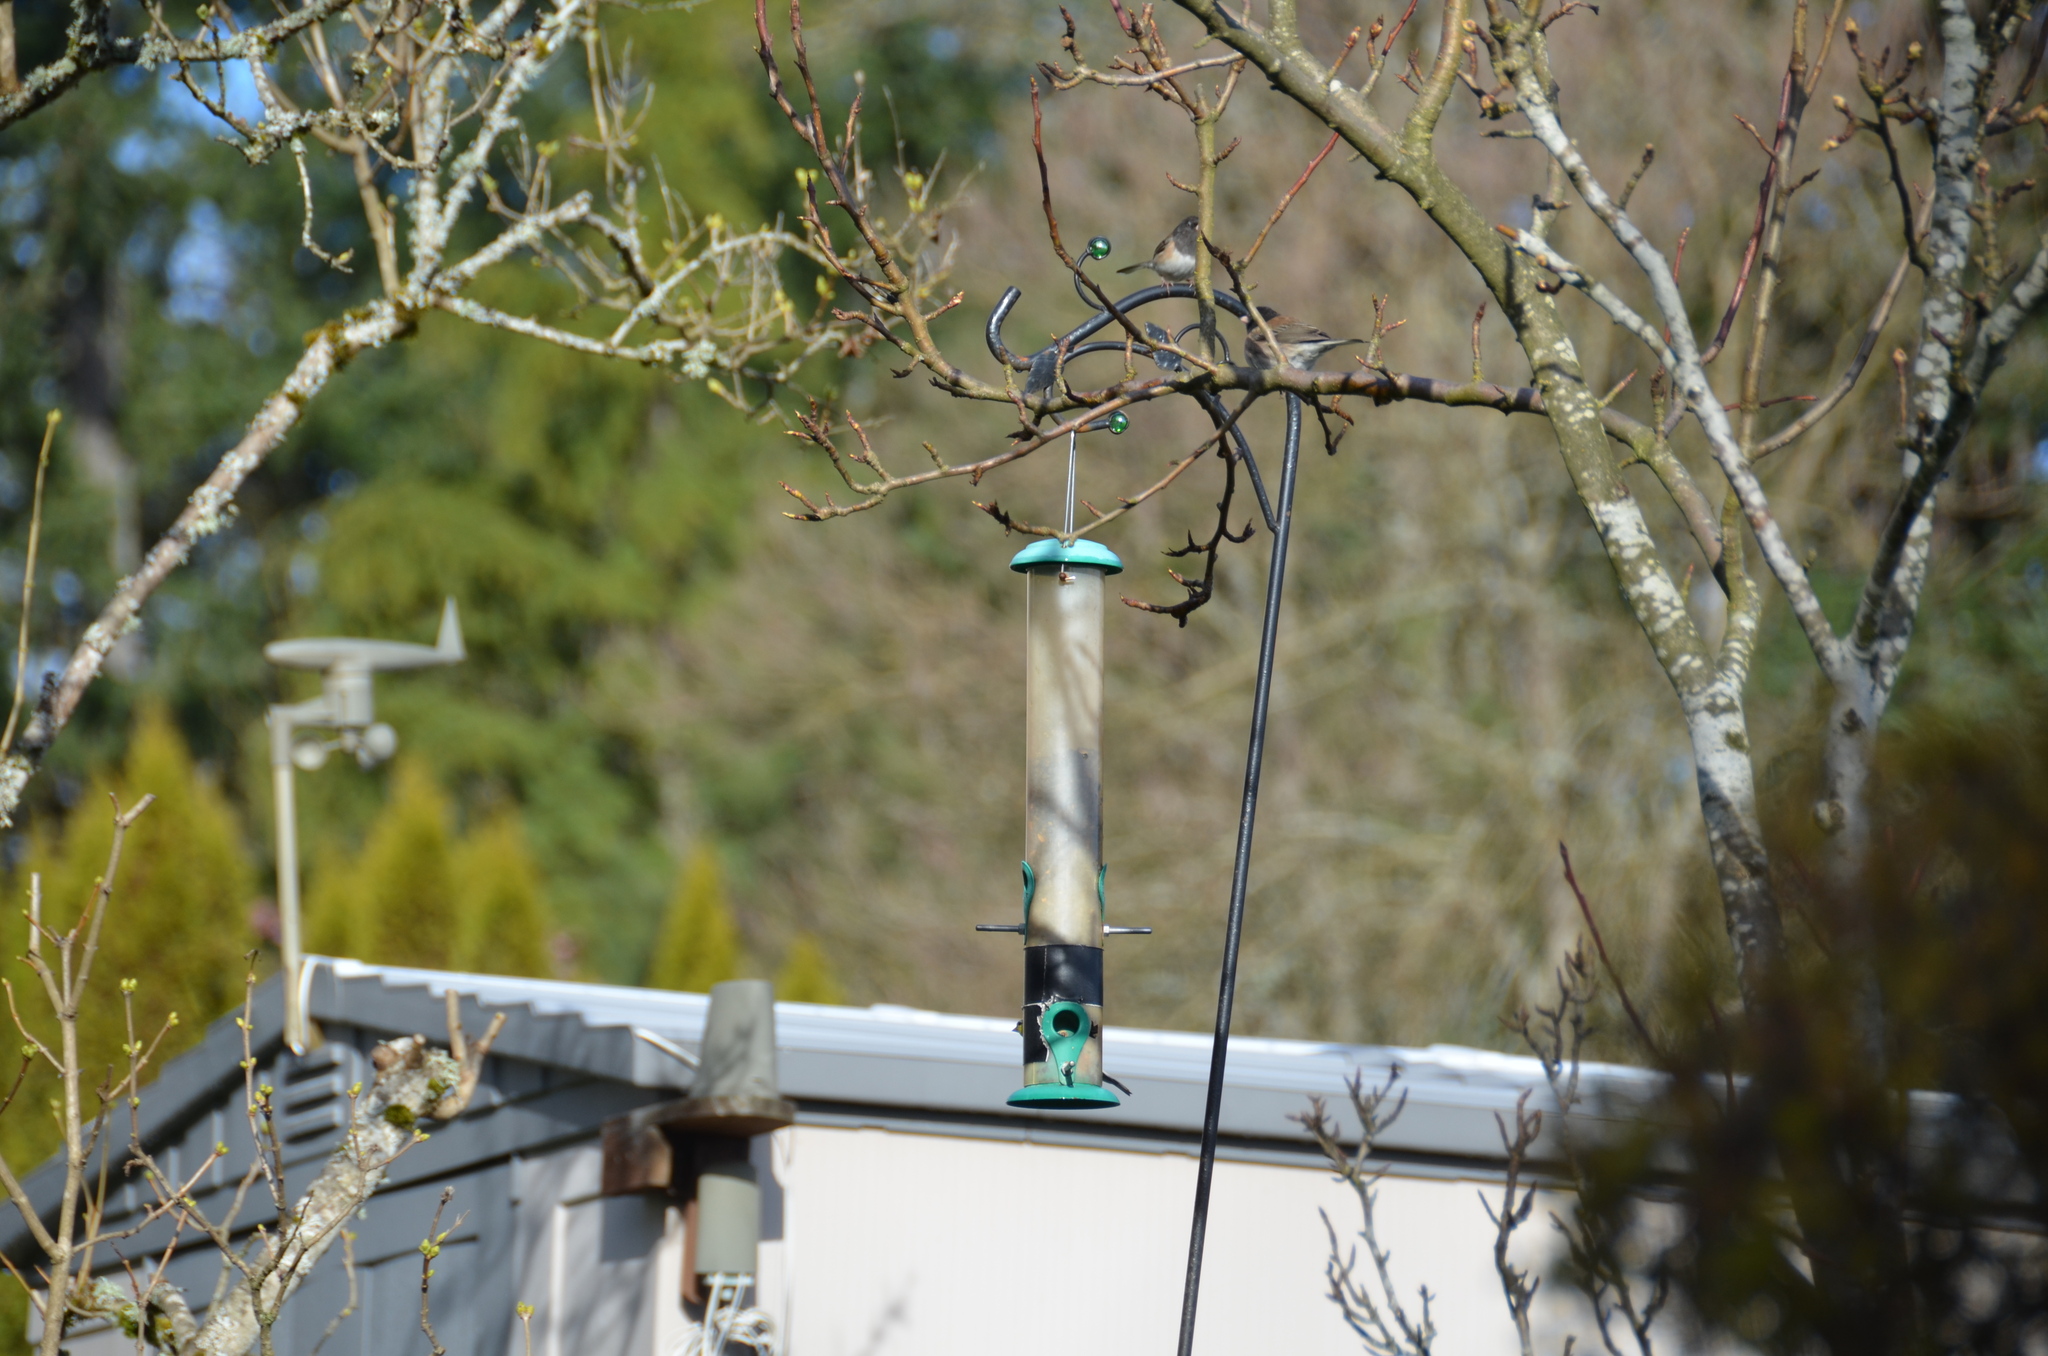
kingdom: Animalia
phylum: Chordata
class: Aves
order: Passeriformes
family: Passerellidae
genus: Junco
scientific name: Junco hyemalis
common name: Dark-eyed junco
